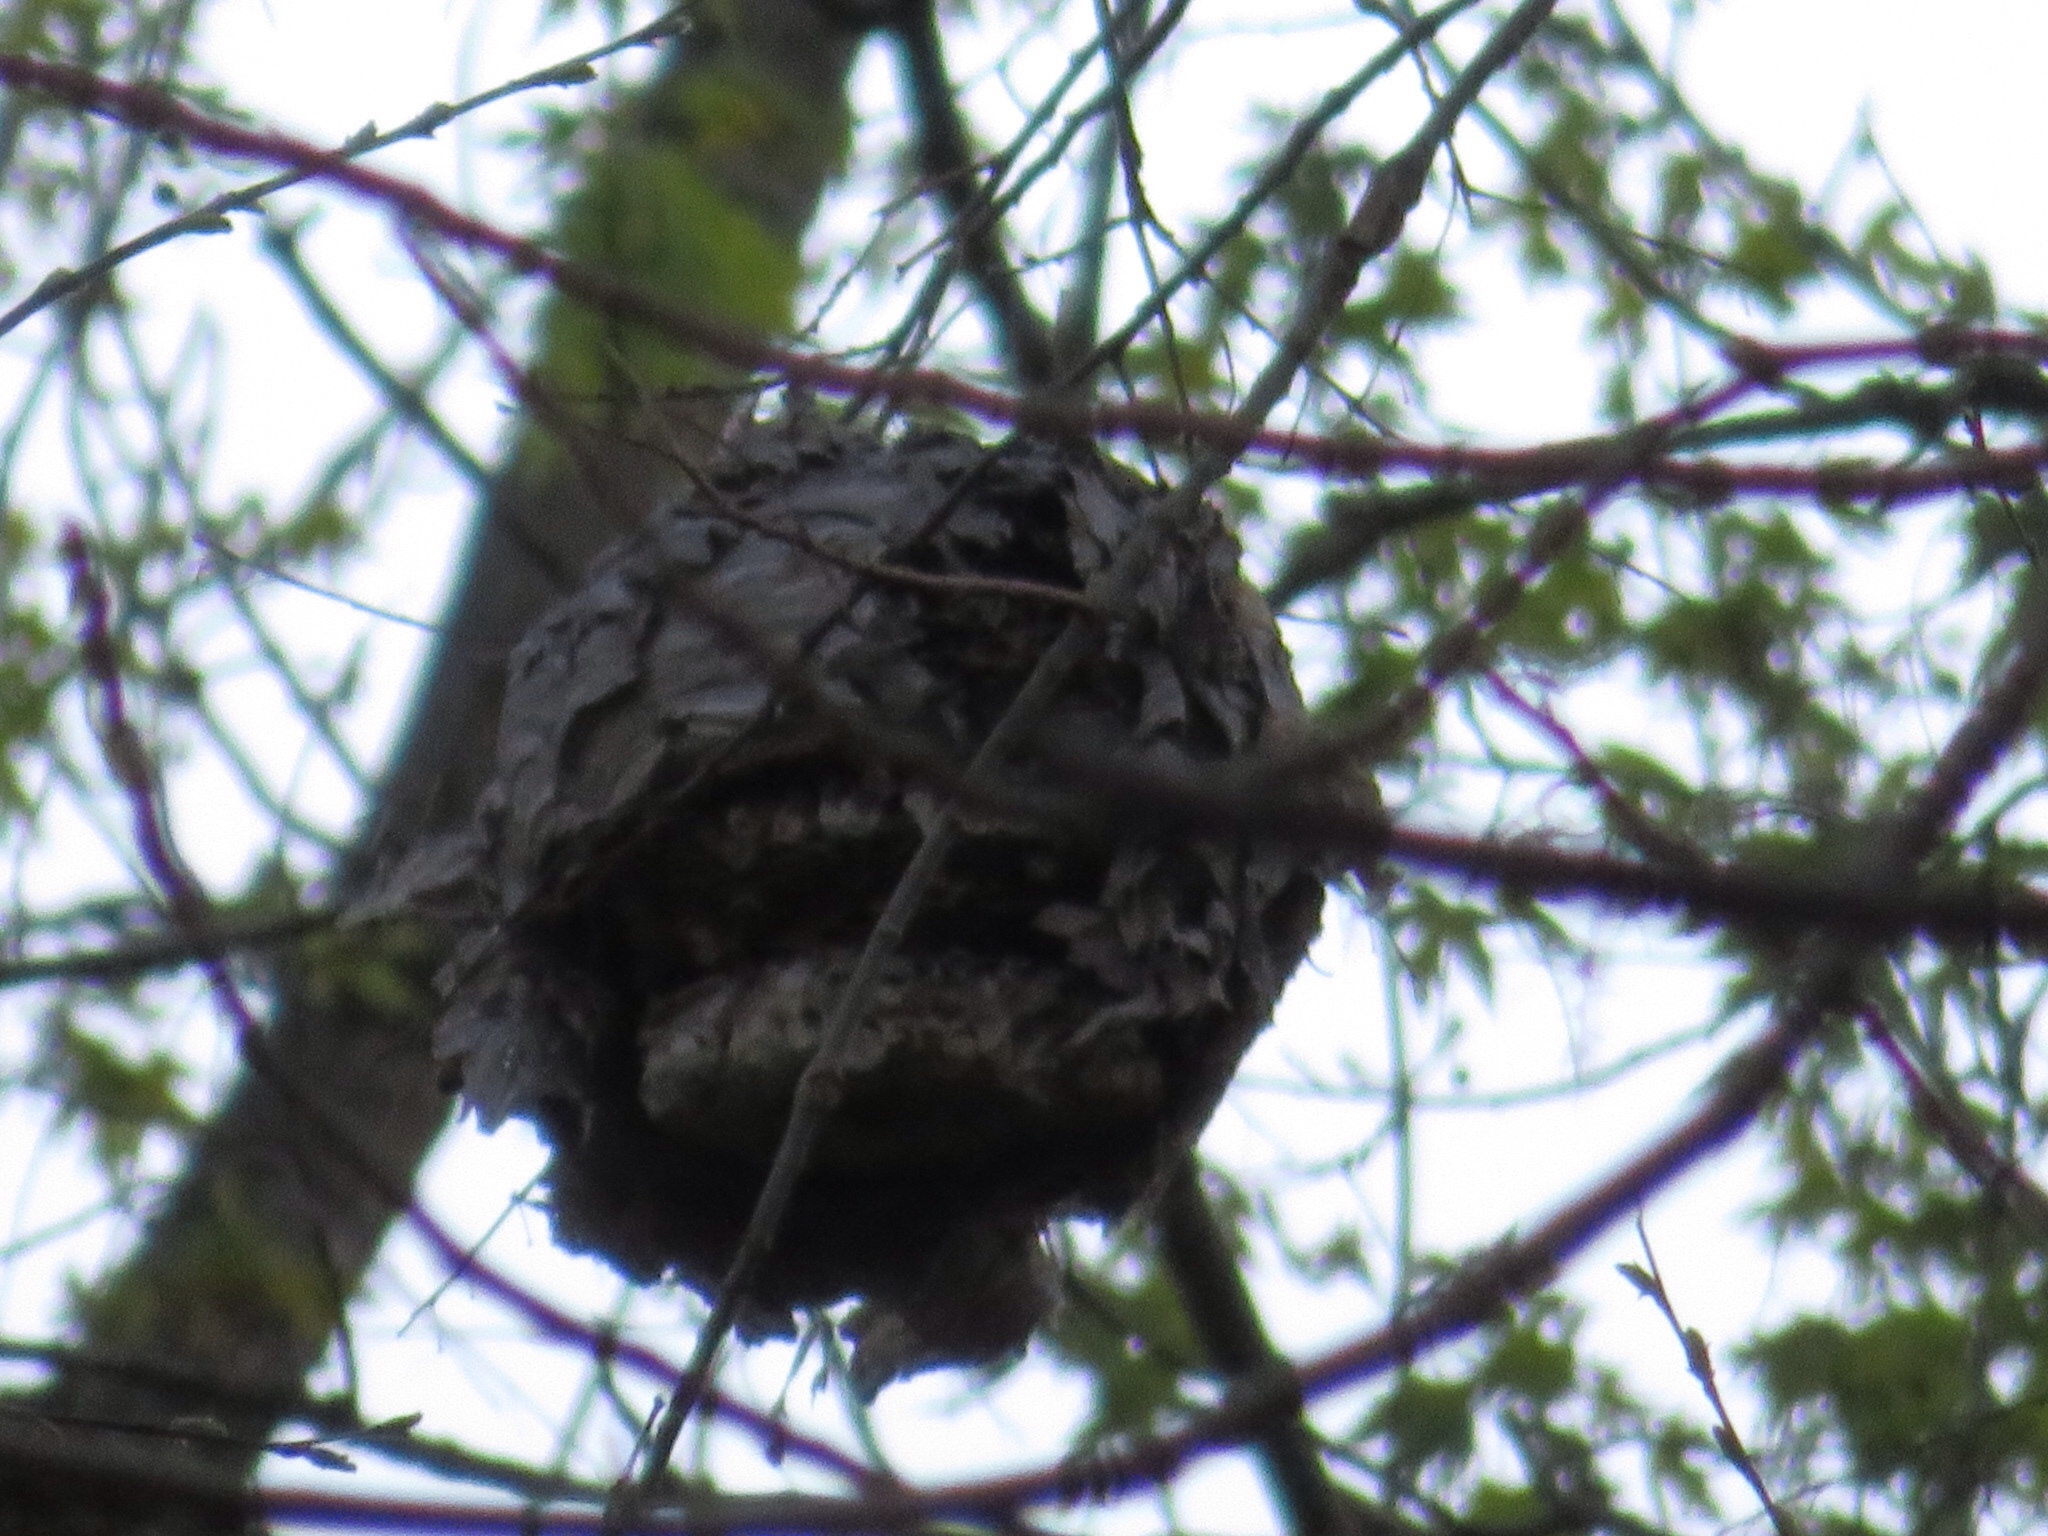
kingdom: Animalia
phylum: Arthropoda
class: Insecta
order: Hymenoptera
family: Vespidae
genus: Dolichovespula
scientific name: Dolichovespula
